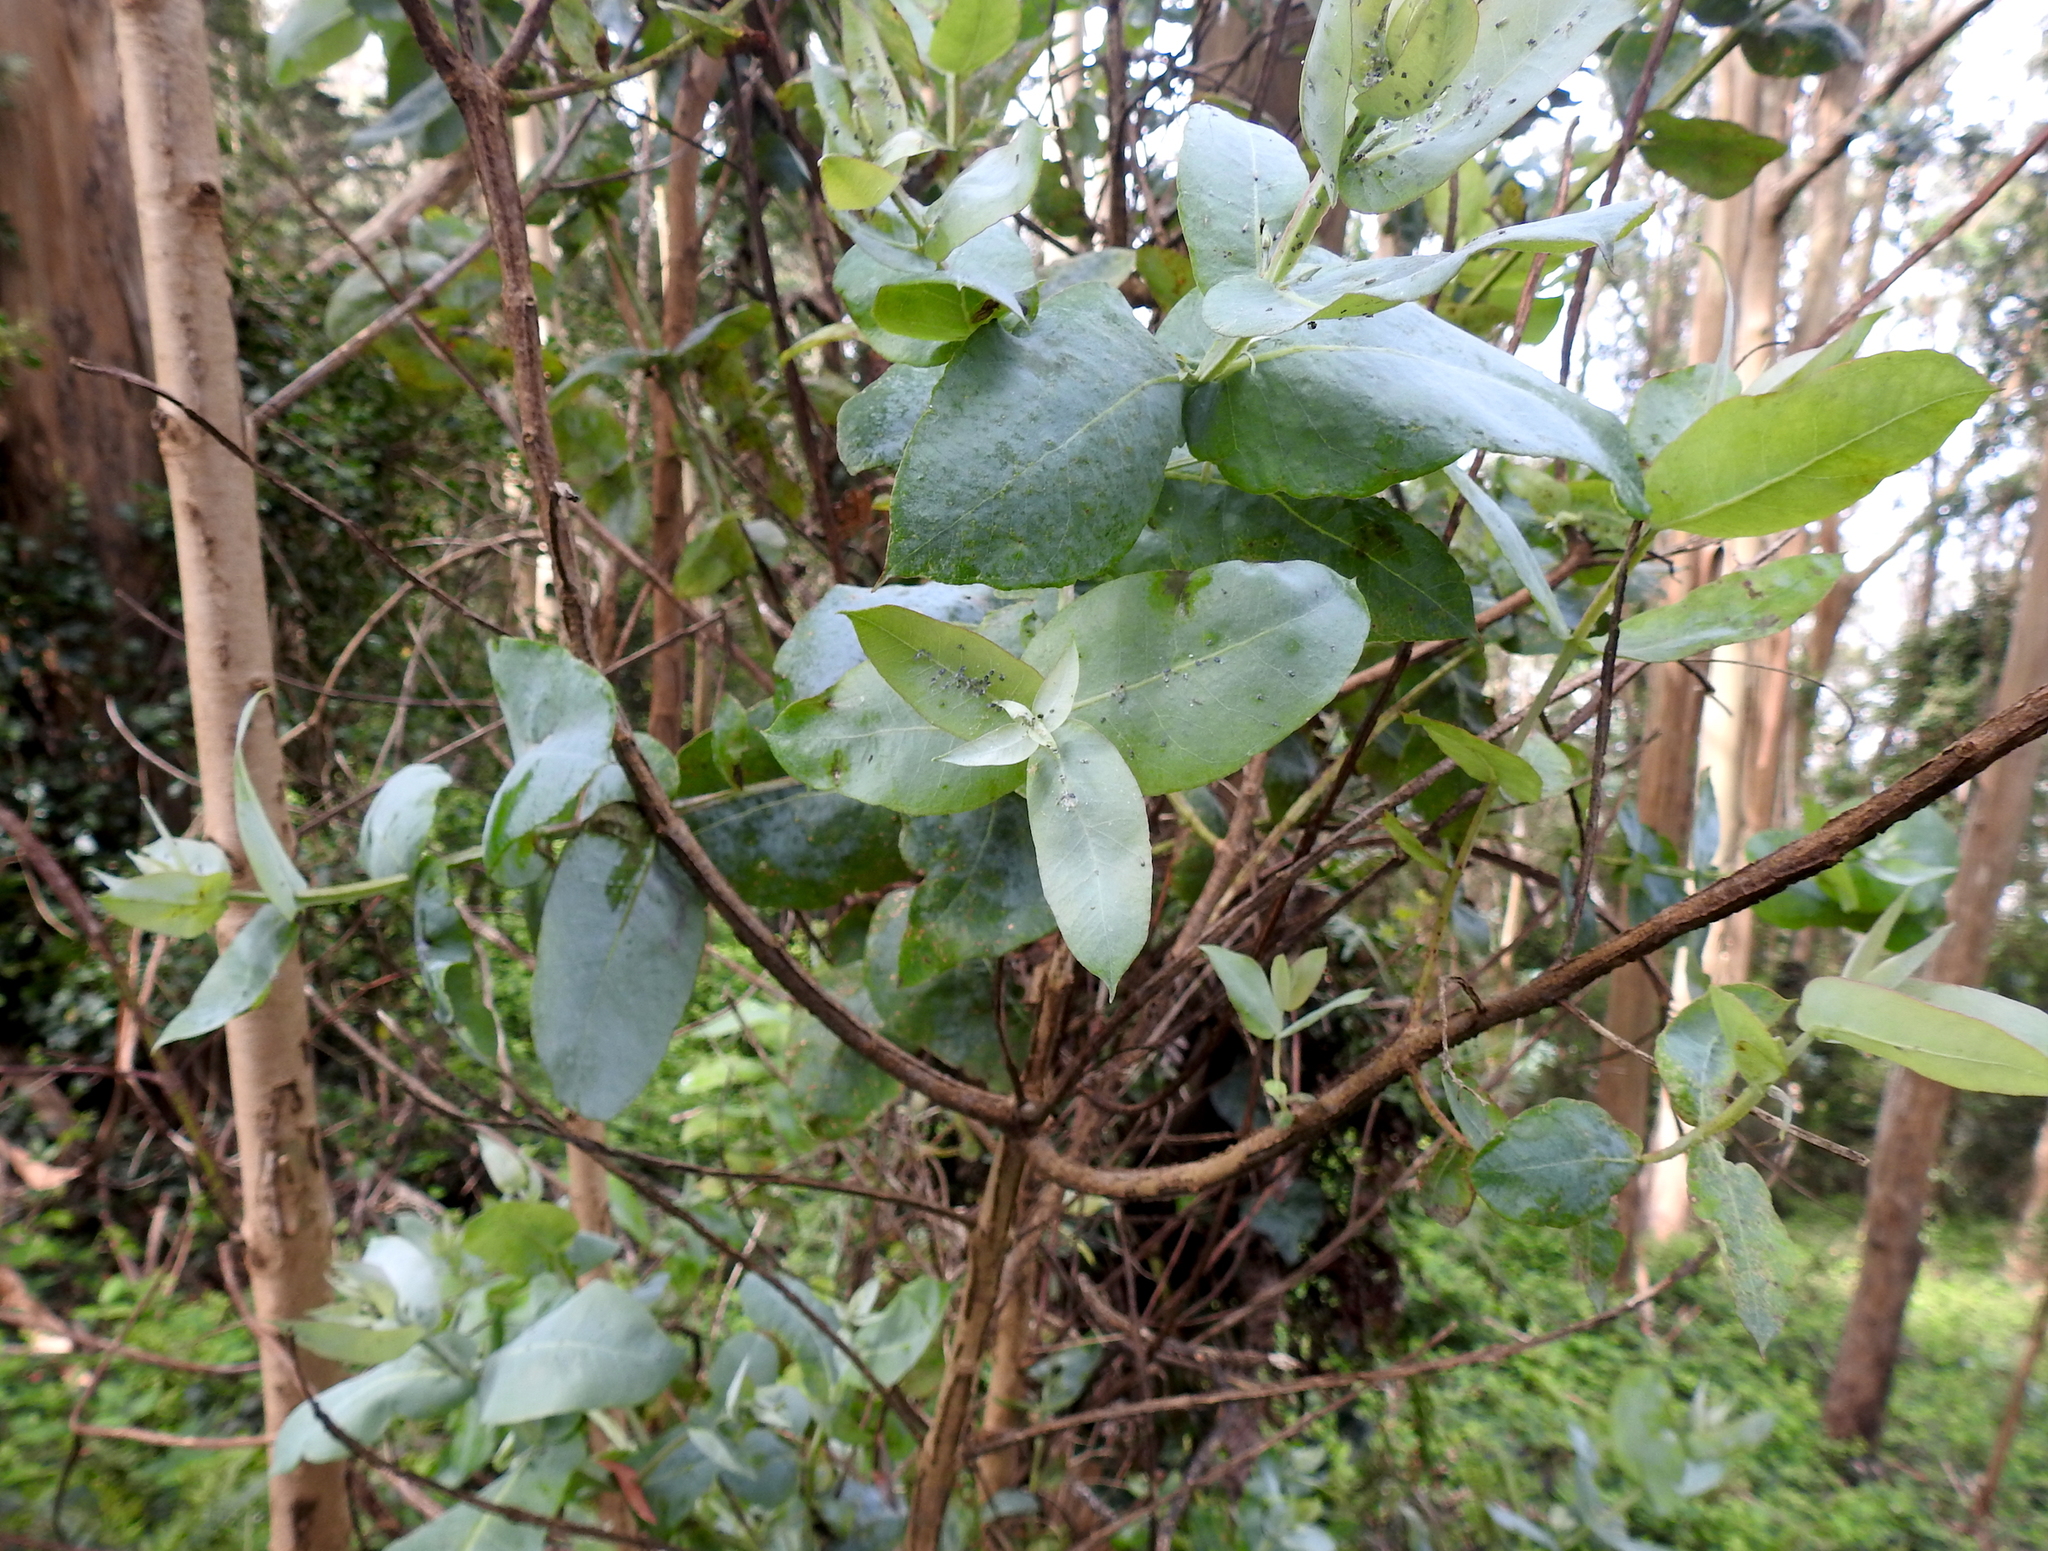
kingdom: Plantae
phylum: Tracheophyta
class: Magnoliopsida
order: Myrtales
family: Myrtaceae
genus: Eucalyptus
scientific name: Eucalyptus globulus
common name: Southern blue-gum
